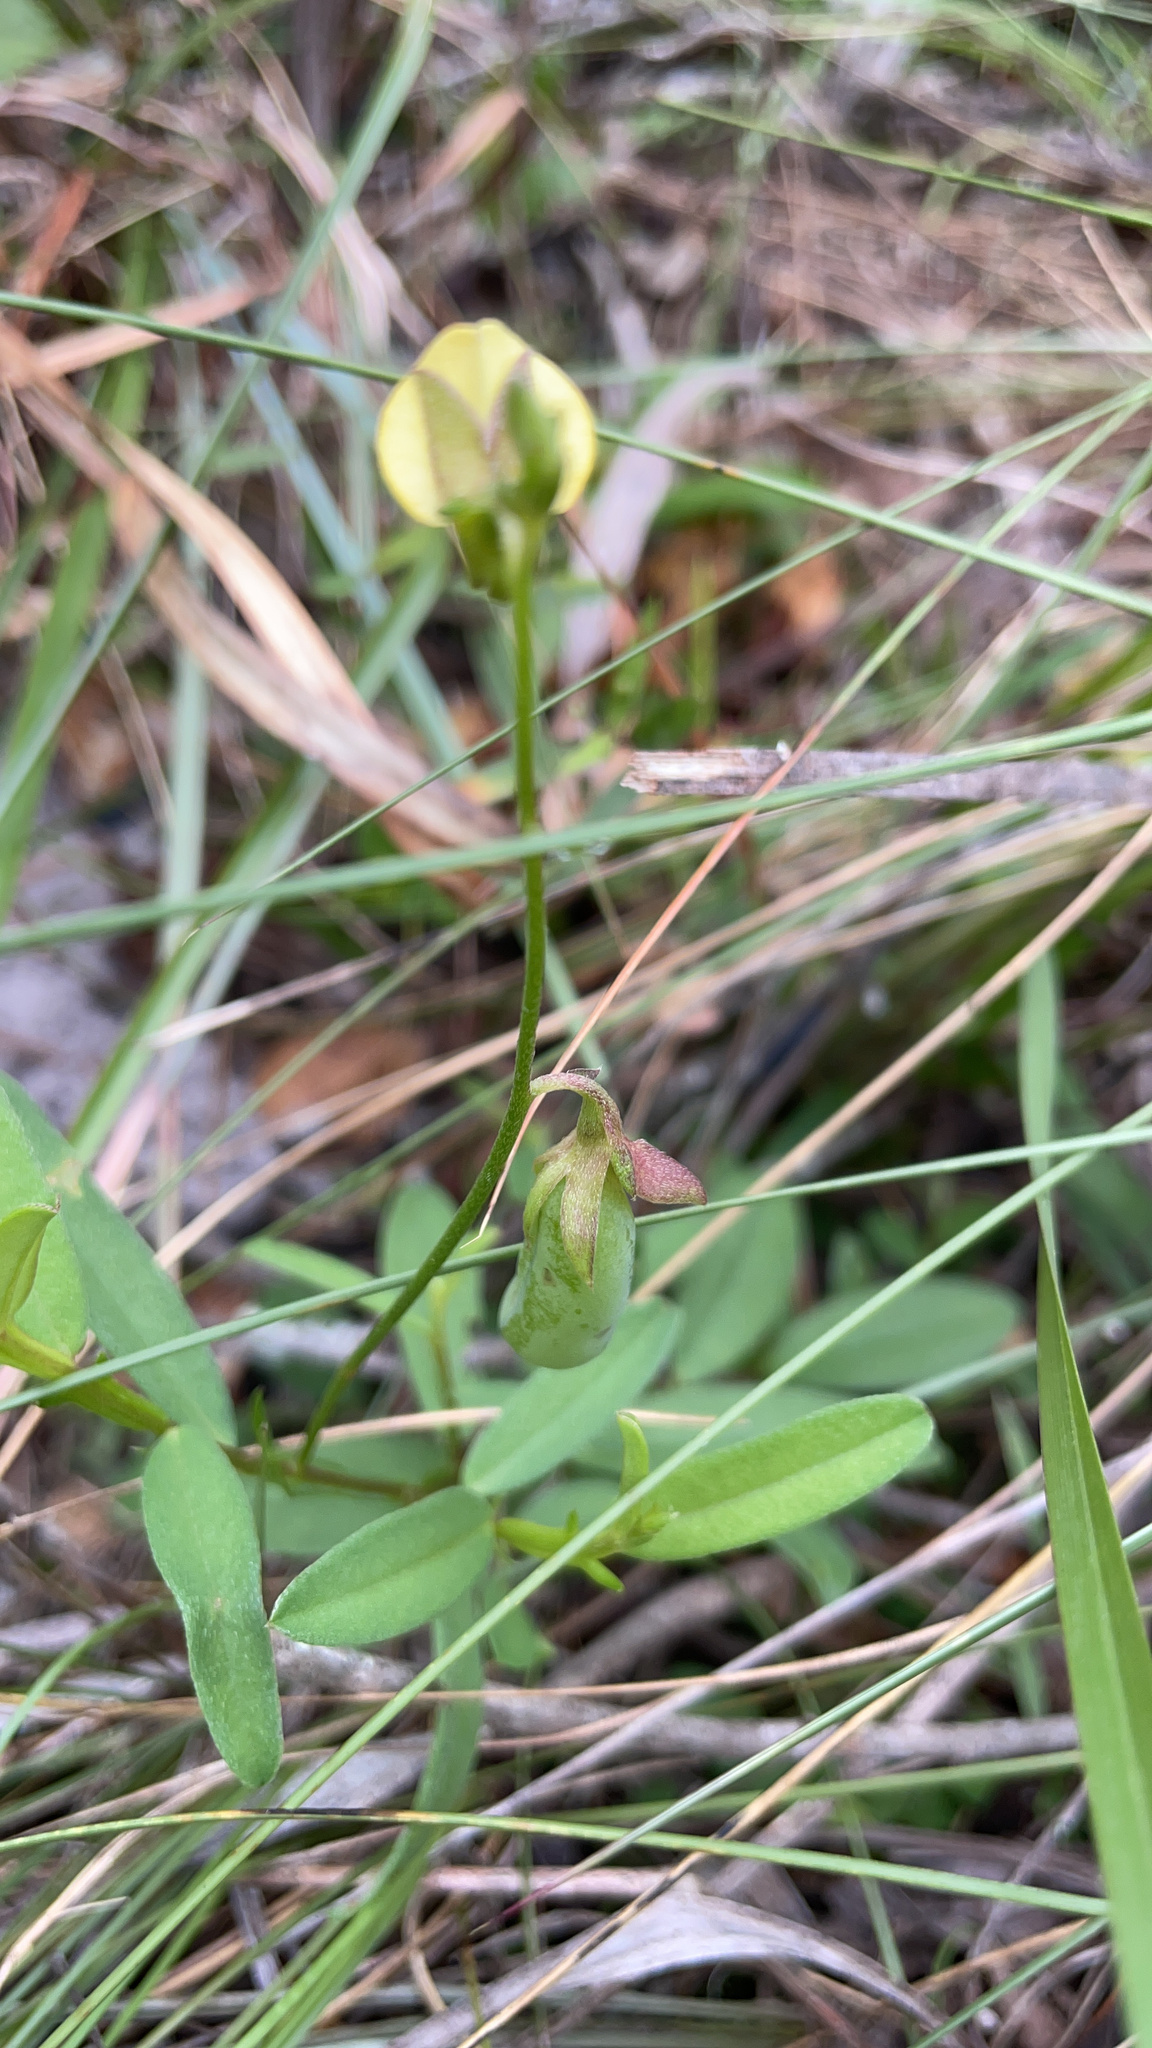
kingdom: Plantae
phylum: Tracheophyta
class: Magnoliopsida
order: Fabales
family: Fabaceae
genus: Crotalaria
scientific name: Crotalaria rotundifolia
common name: Prostrate rattlebox
